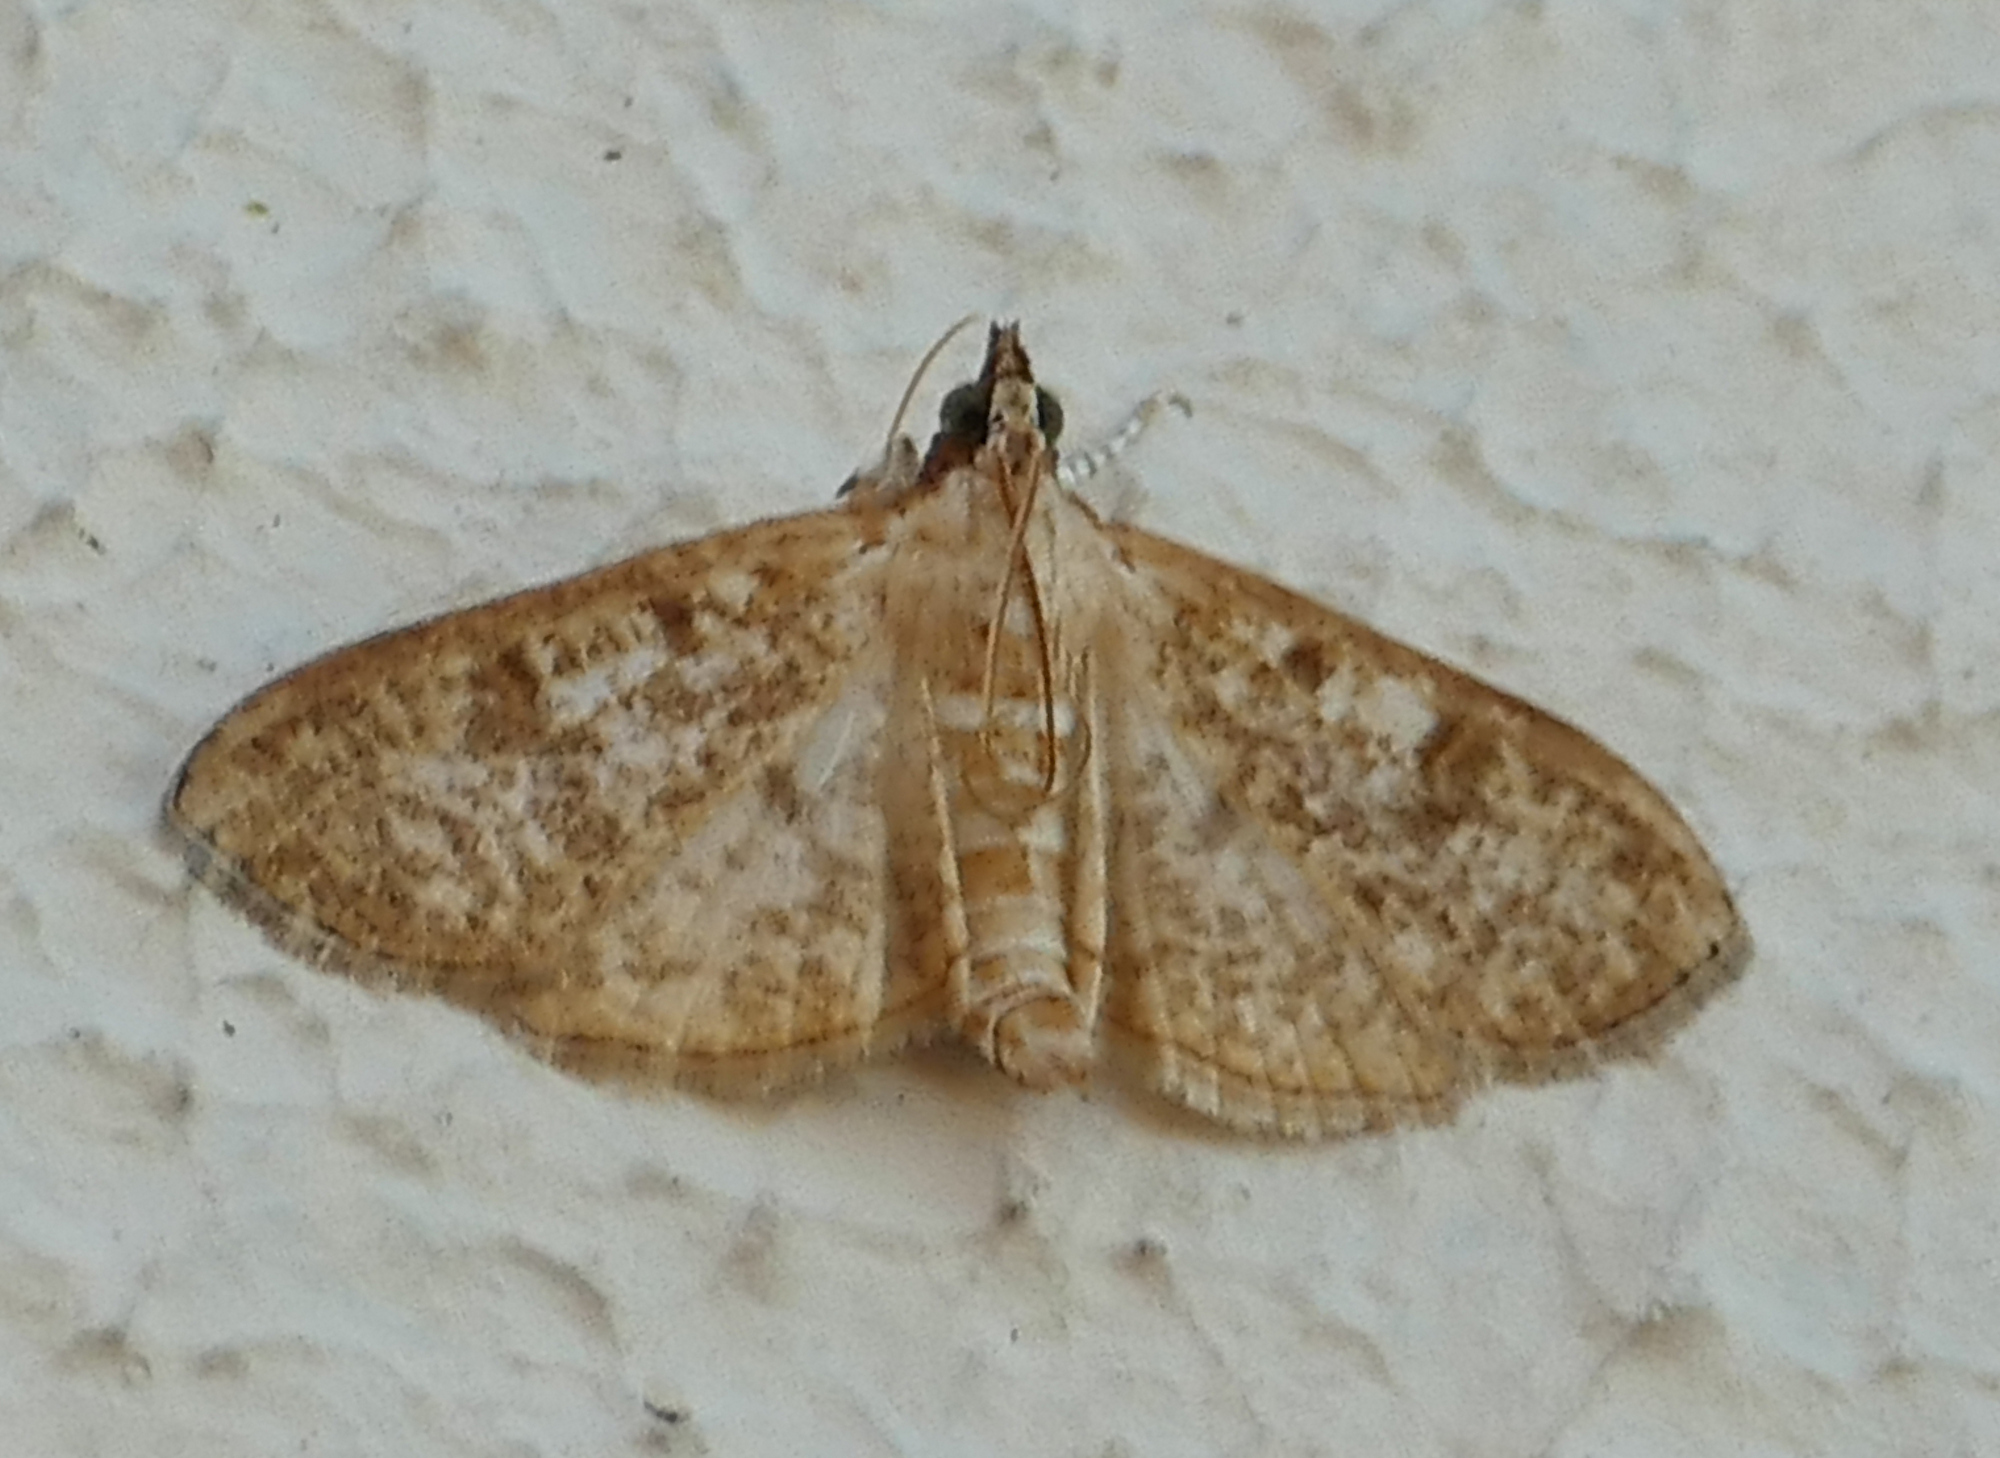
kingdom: Animalia
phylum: Arthropoda
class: Insecta
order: Lepidoptera
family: Crambidae
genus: Palpita
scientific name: Palpita freemanalis
